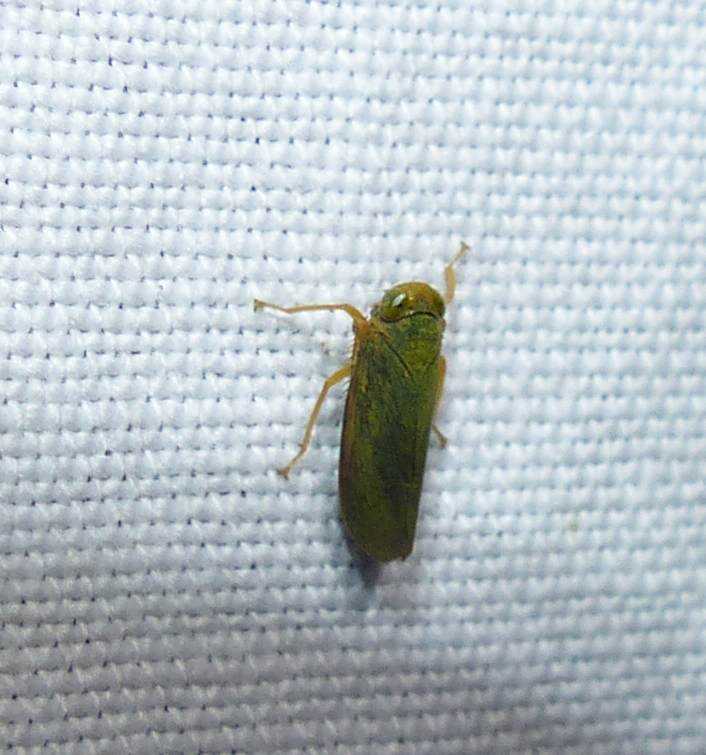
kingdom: Animalia
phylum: Arthropoda
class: Insecta
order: Hemiptera
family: Cicadellidae
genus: Jikradia
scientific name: Jikradia olitoria
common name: Coppery leafhopper
